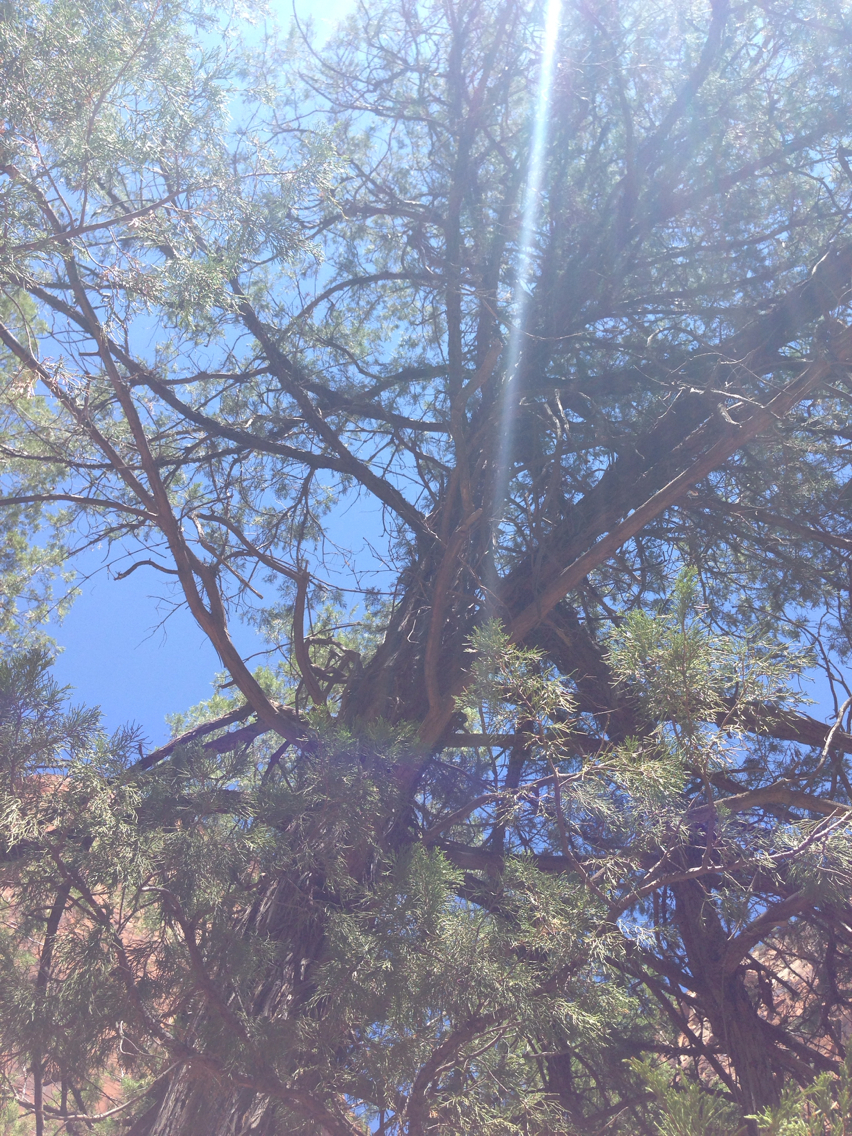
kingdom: Plantae
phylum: Tracheophyta
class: Pinopsida
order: Pinales
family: Cupressaceae
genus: Juniperus
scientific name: Juniperus scopulorum
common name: Rocky mountain juniper
